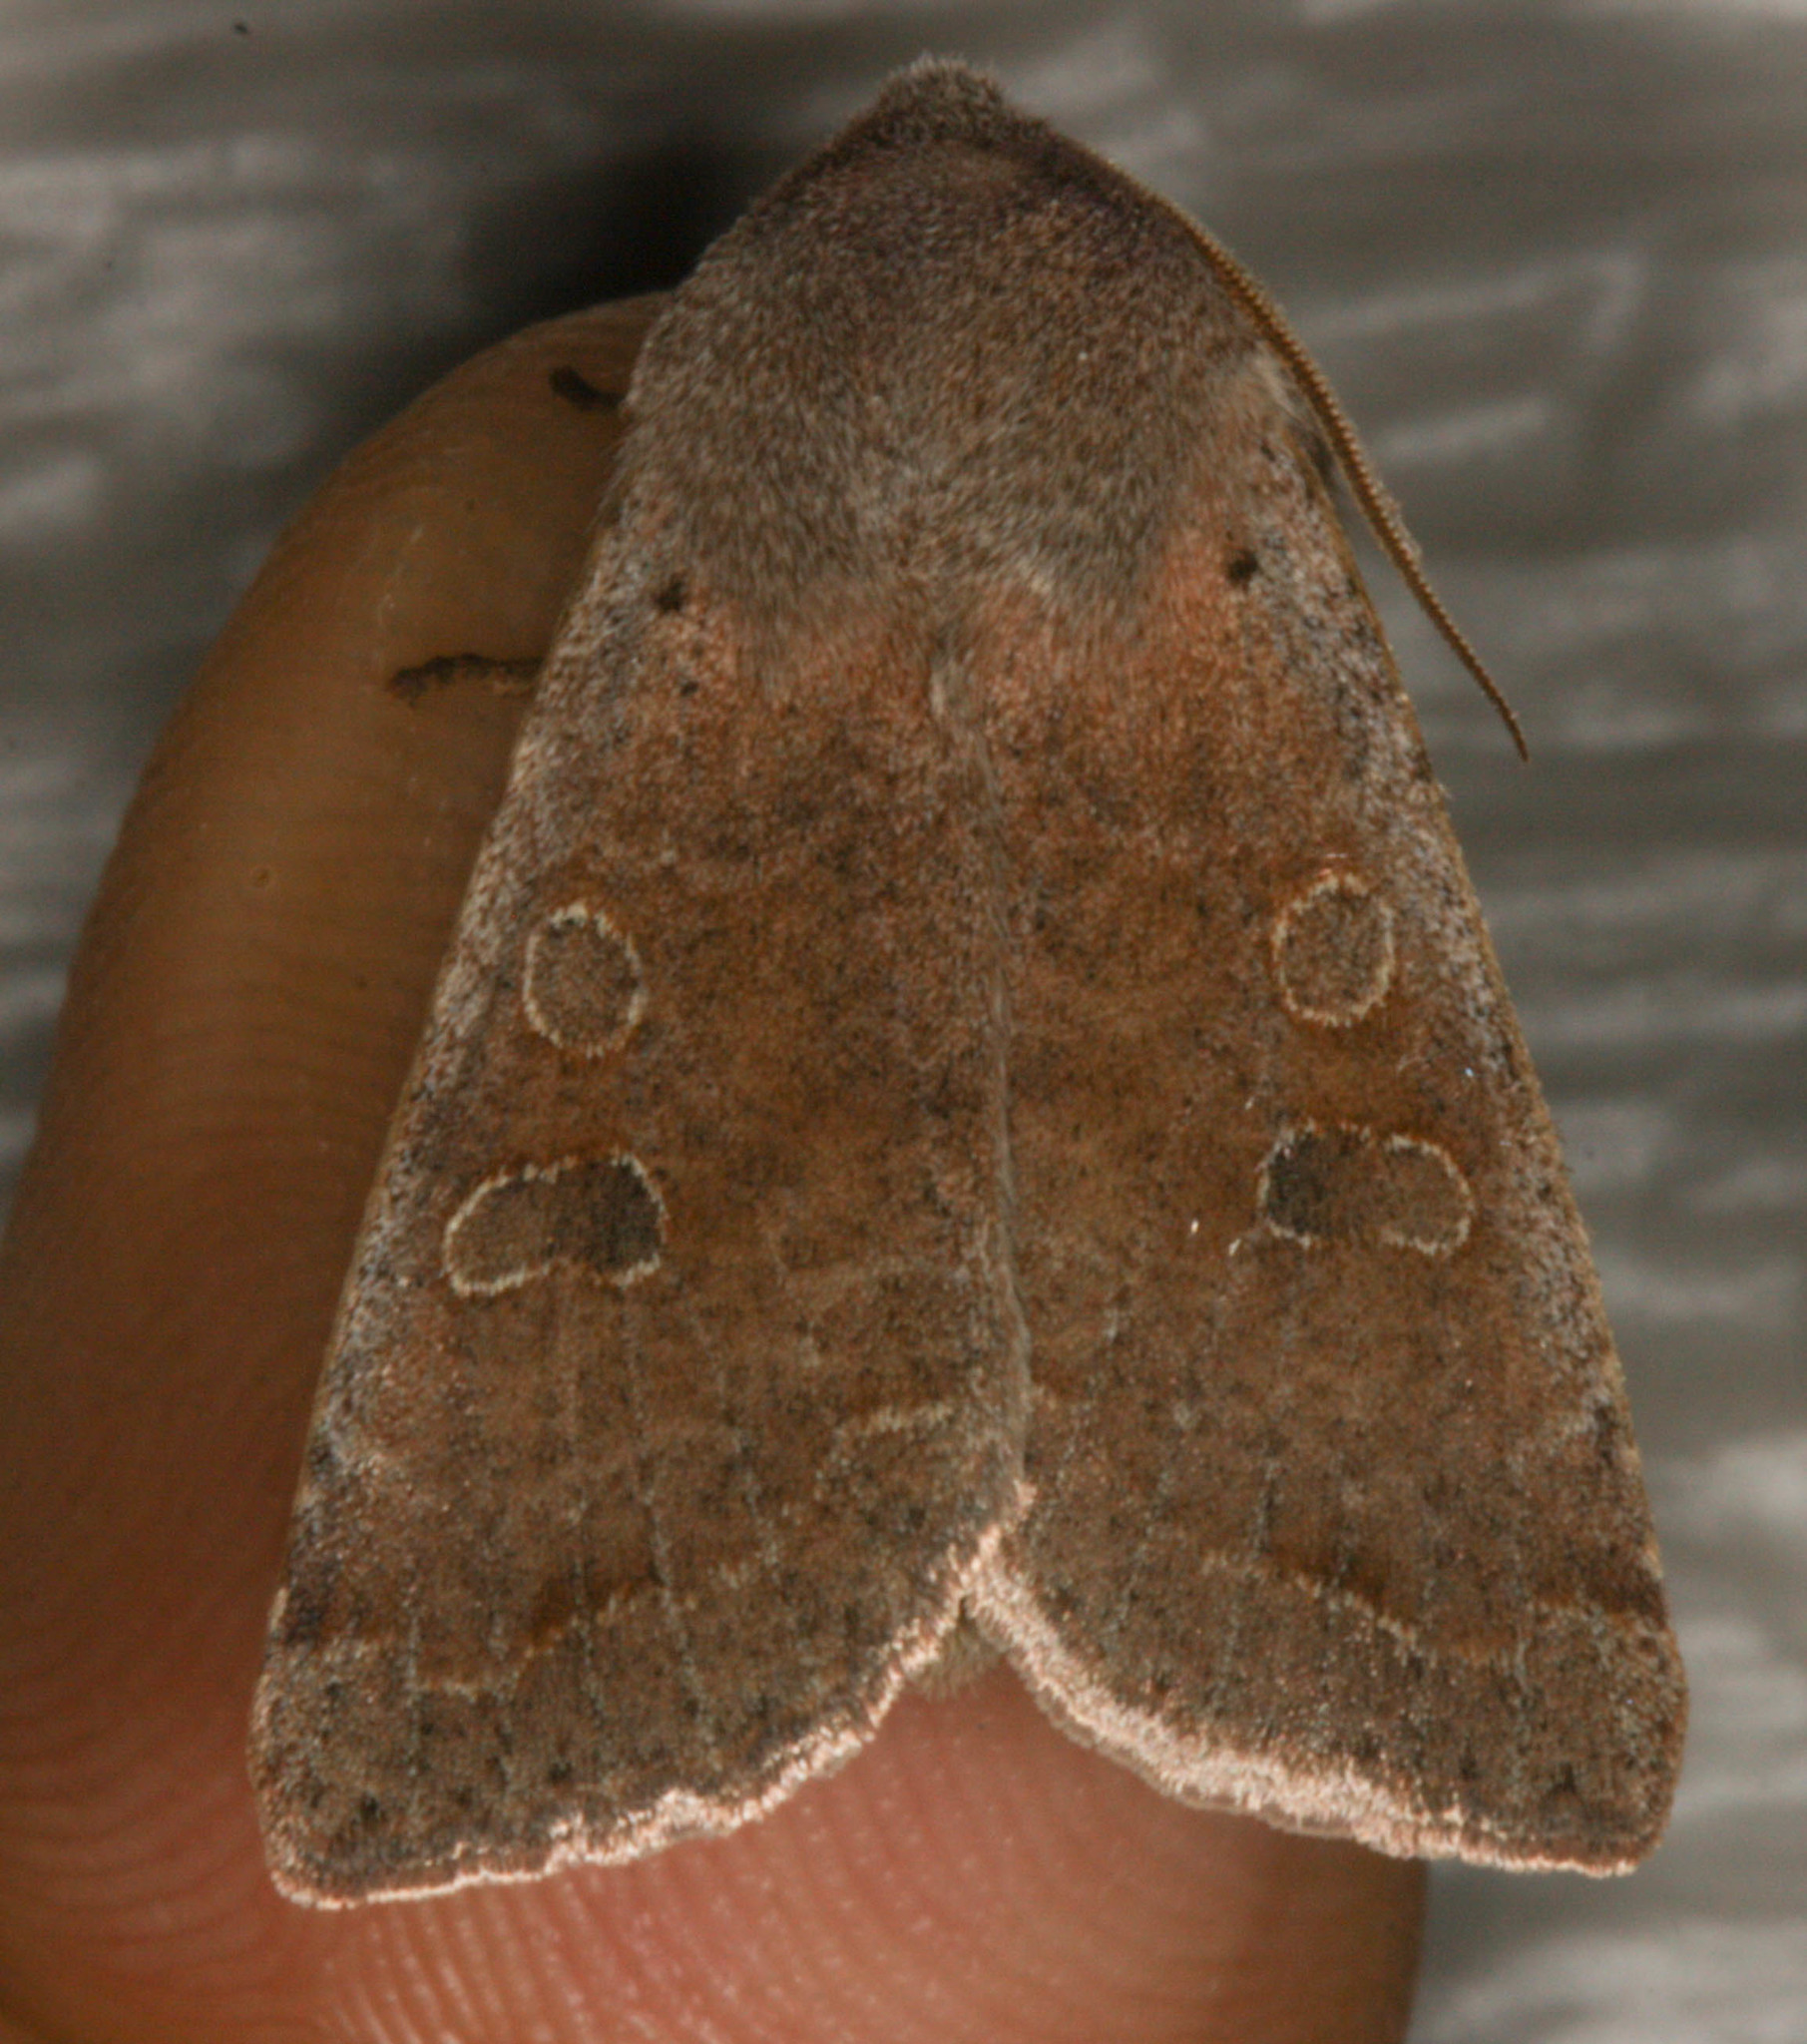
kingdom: Animalia
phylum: Arthropoda
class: Insecta
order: Lepidoptera
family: Noctuidae
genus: Orthosia
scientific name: Orthosia hibisci
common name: Green fruitworm
